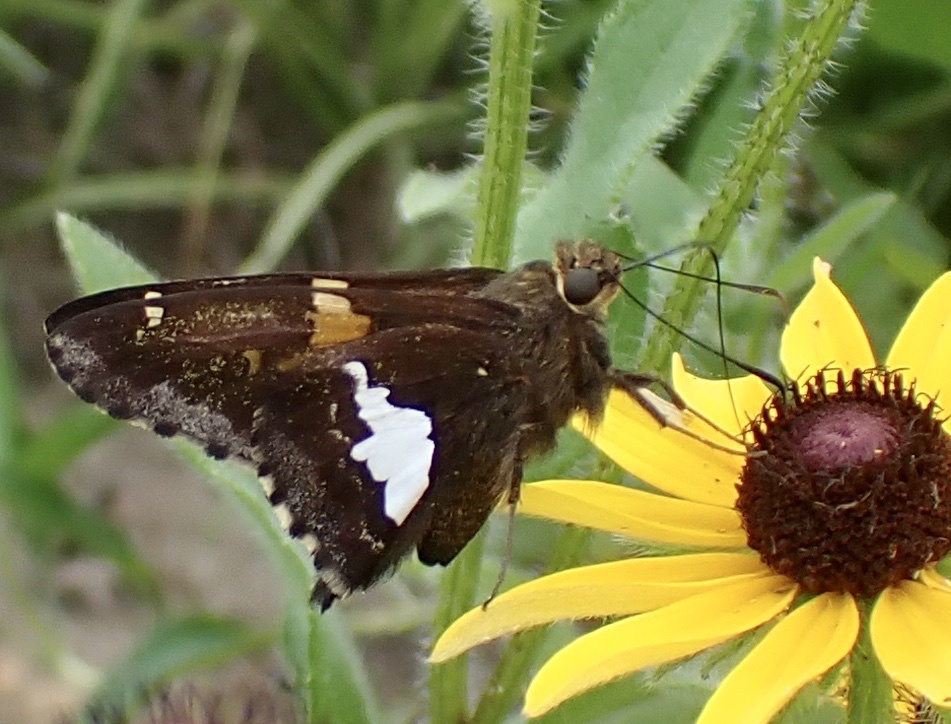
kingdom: Animalia
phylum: Arthropoda
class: Insecta
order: Lepidoptera
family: Hesperiidae
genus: Epargyreus
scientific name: Epargyreus clarus
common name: Silver-spotted skipper
